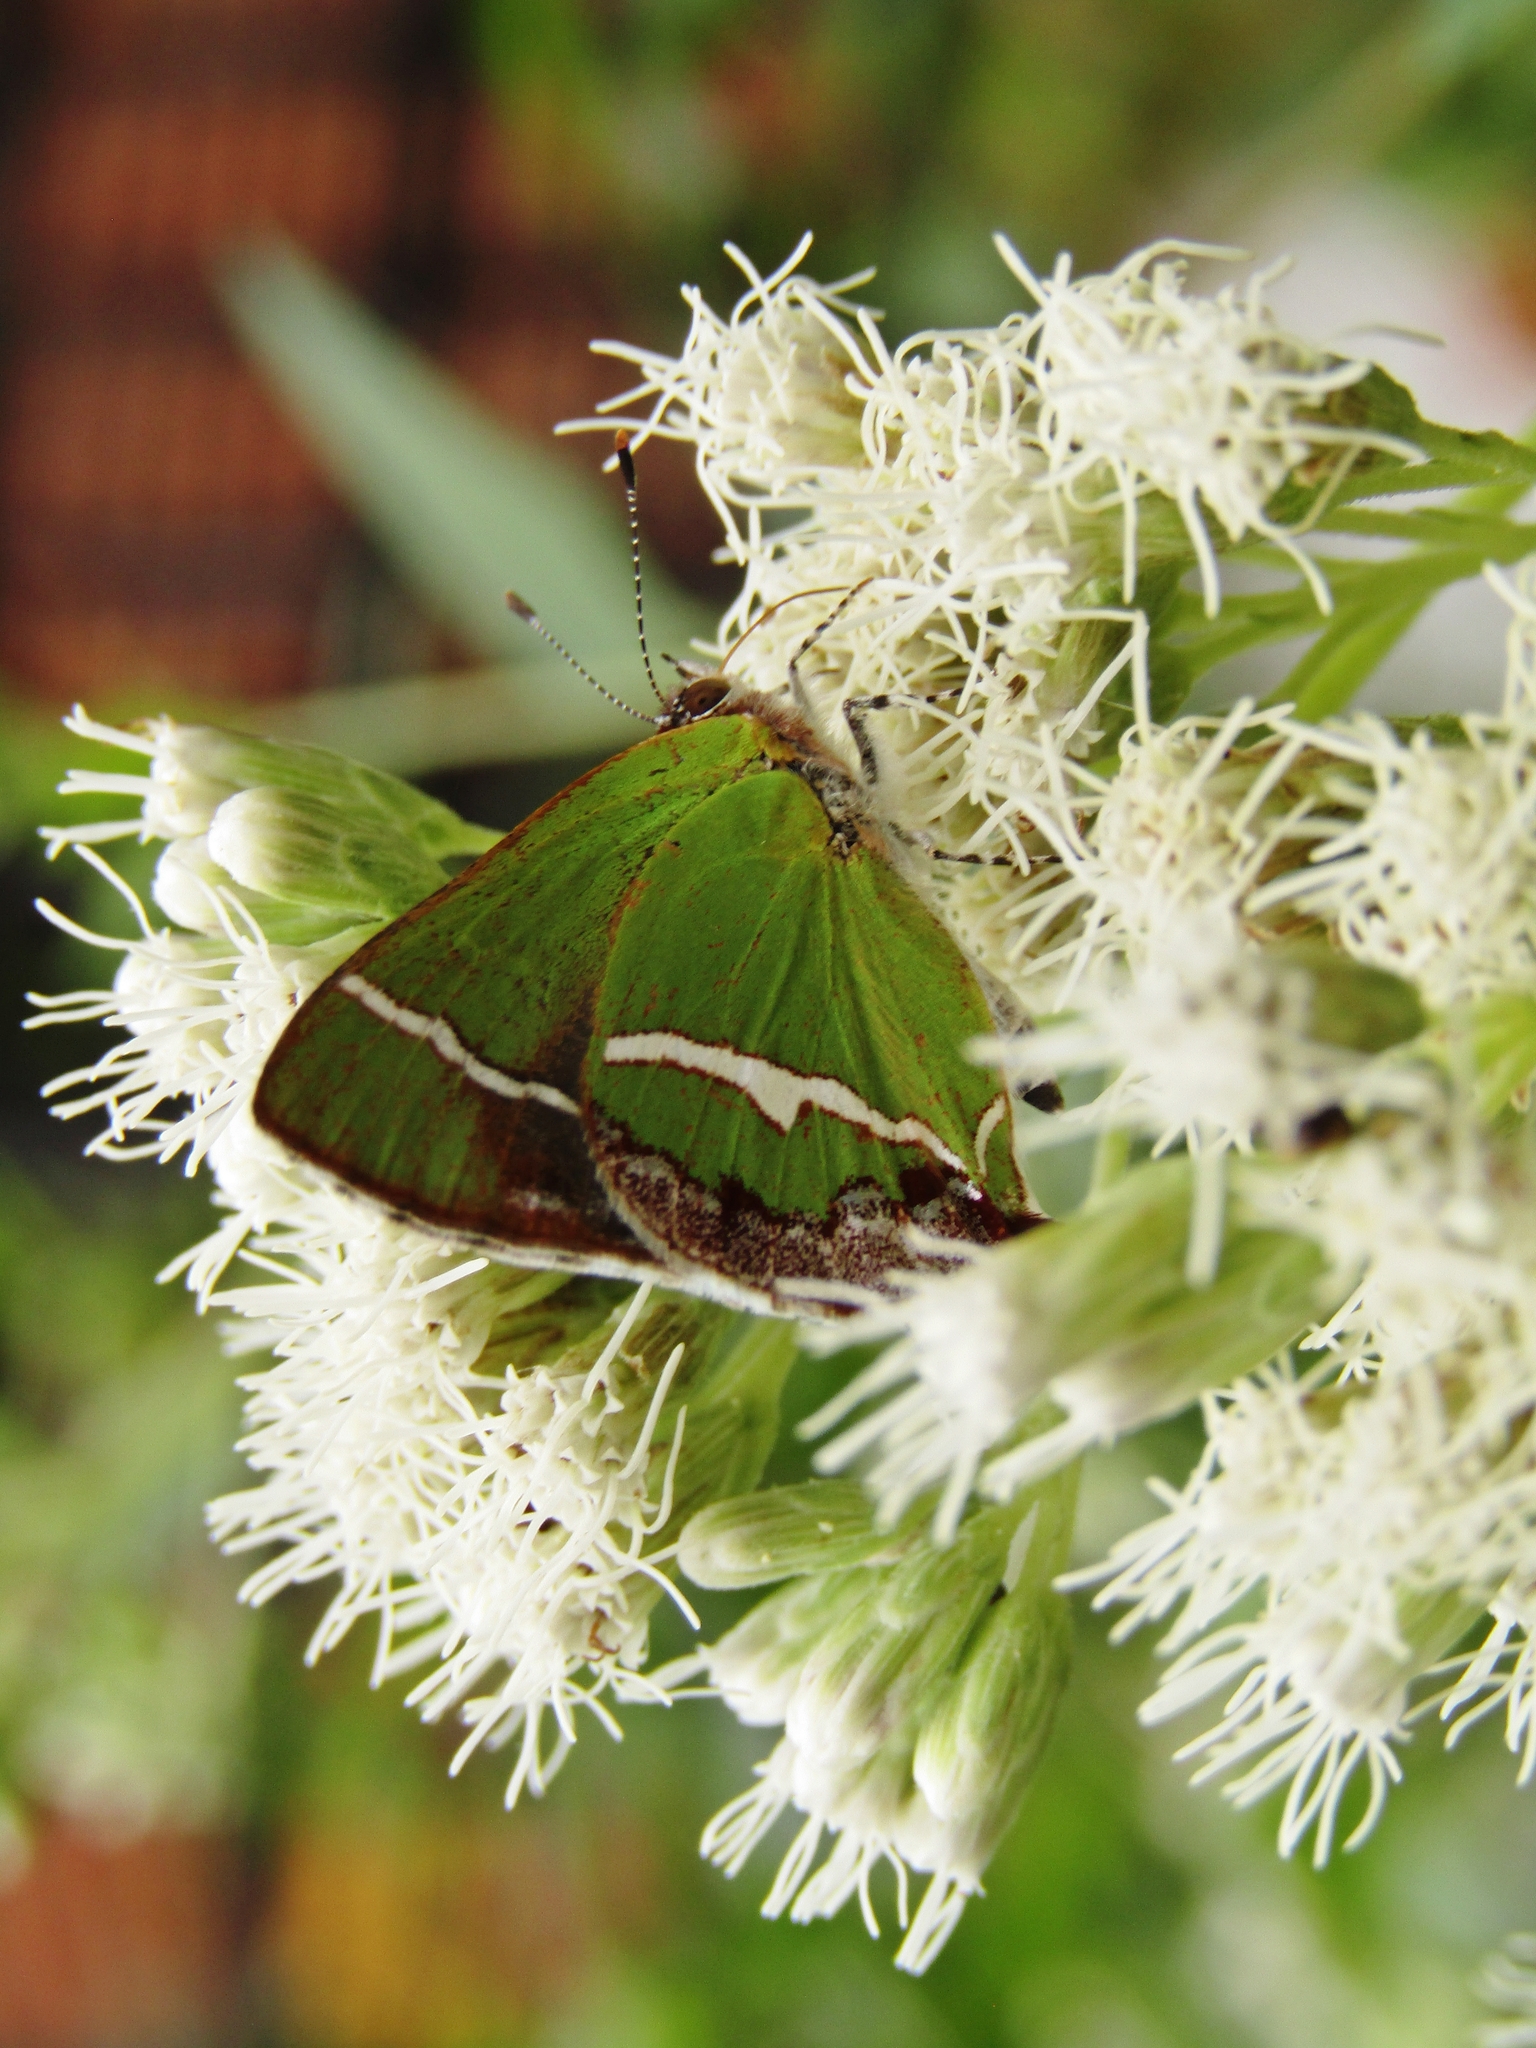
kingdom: Animalia
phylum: Arthropoda
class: Insecta
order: Lepidoptera
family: Lycaenidae
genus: Chlorostrymon
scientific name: Chlorostrymon simaethis
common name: Silver-banded hairstreak
